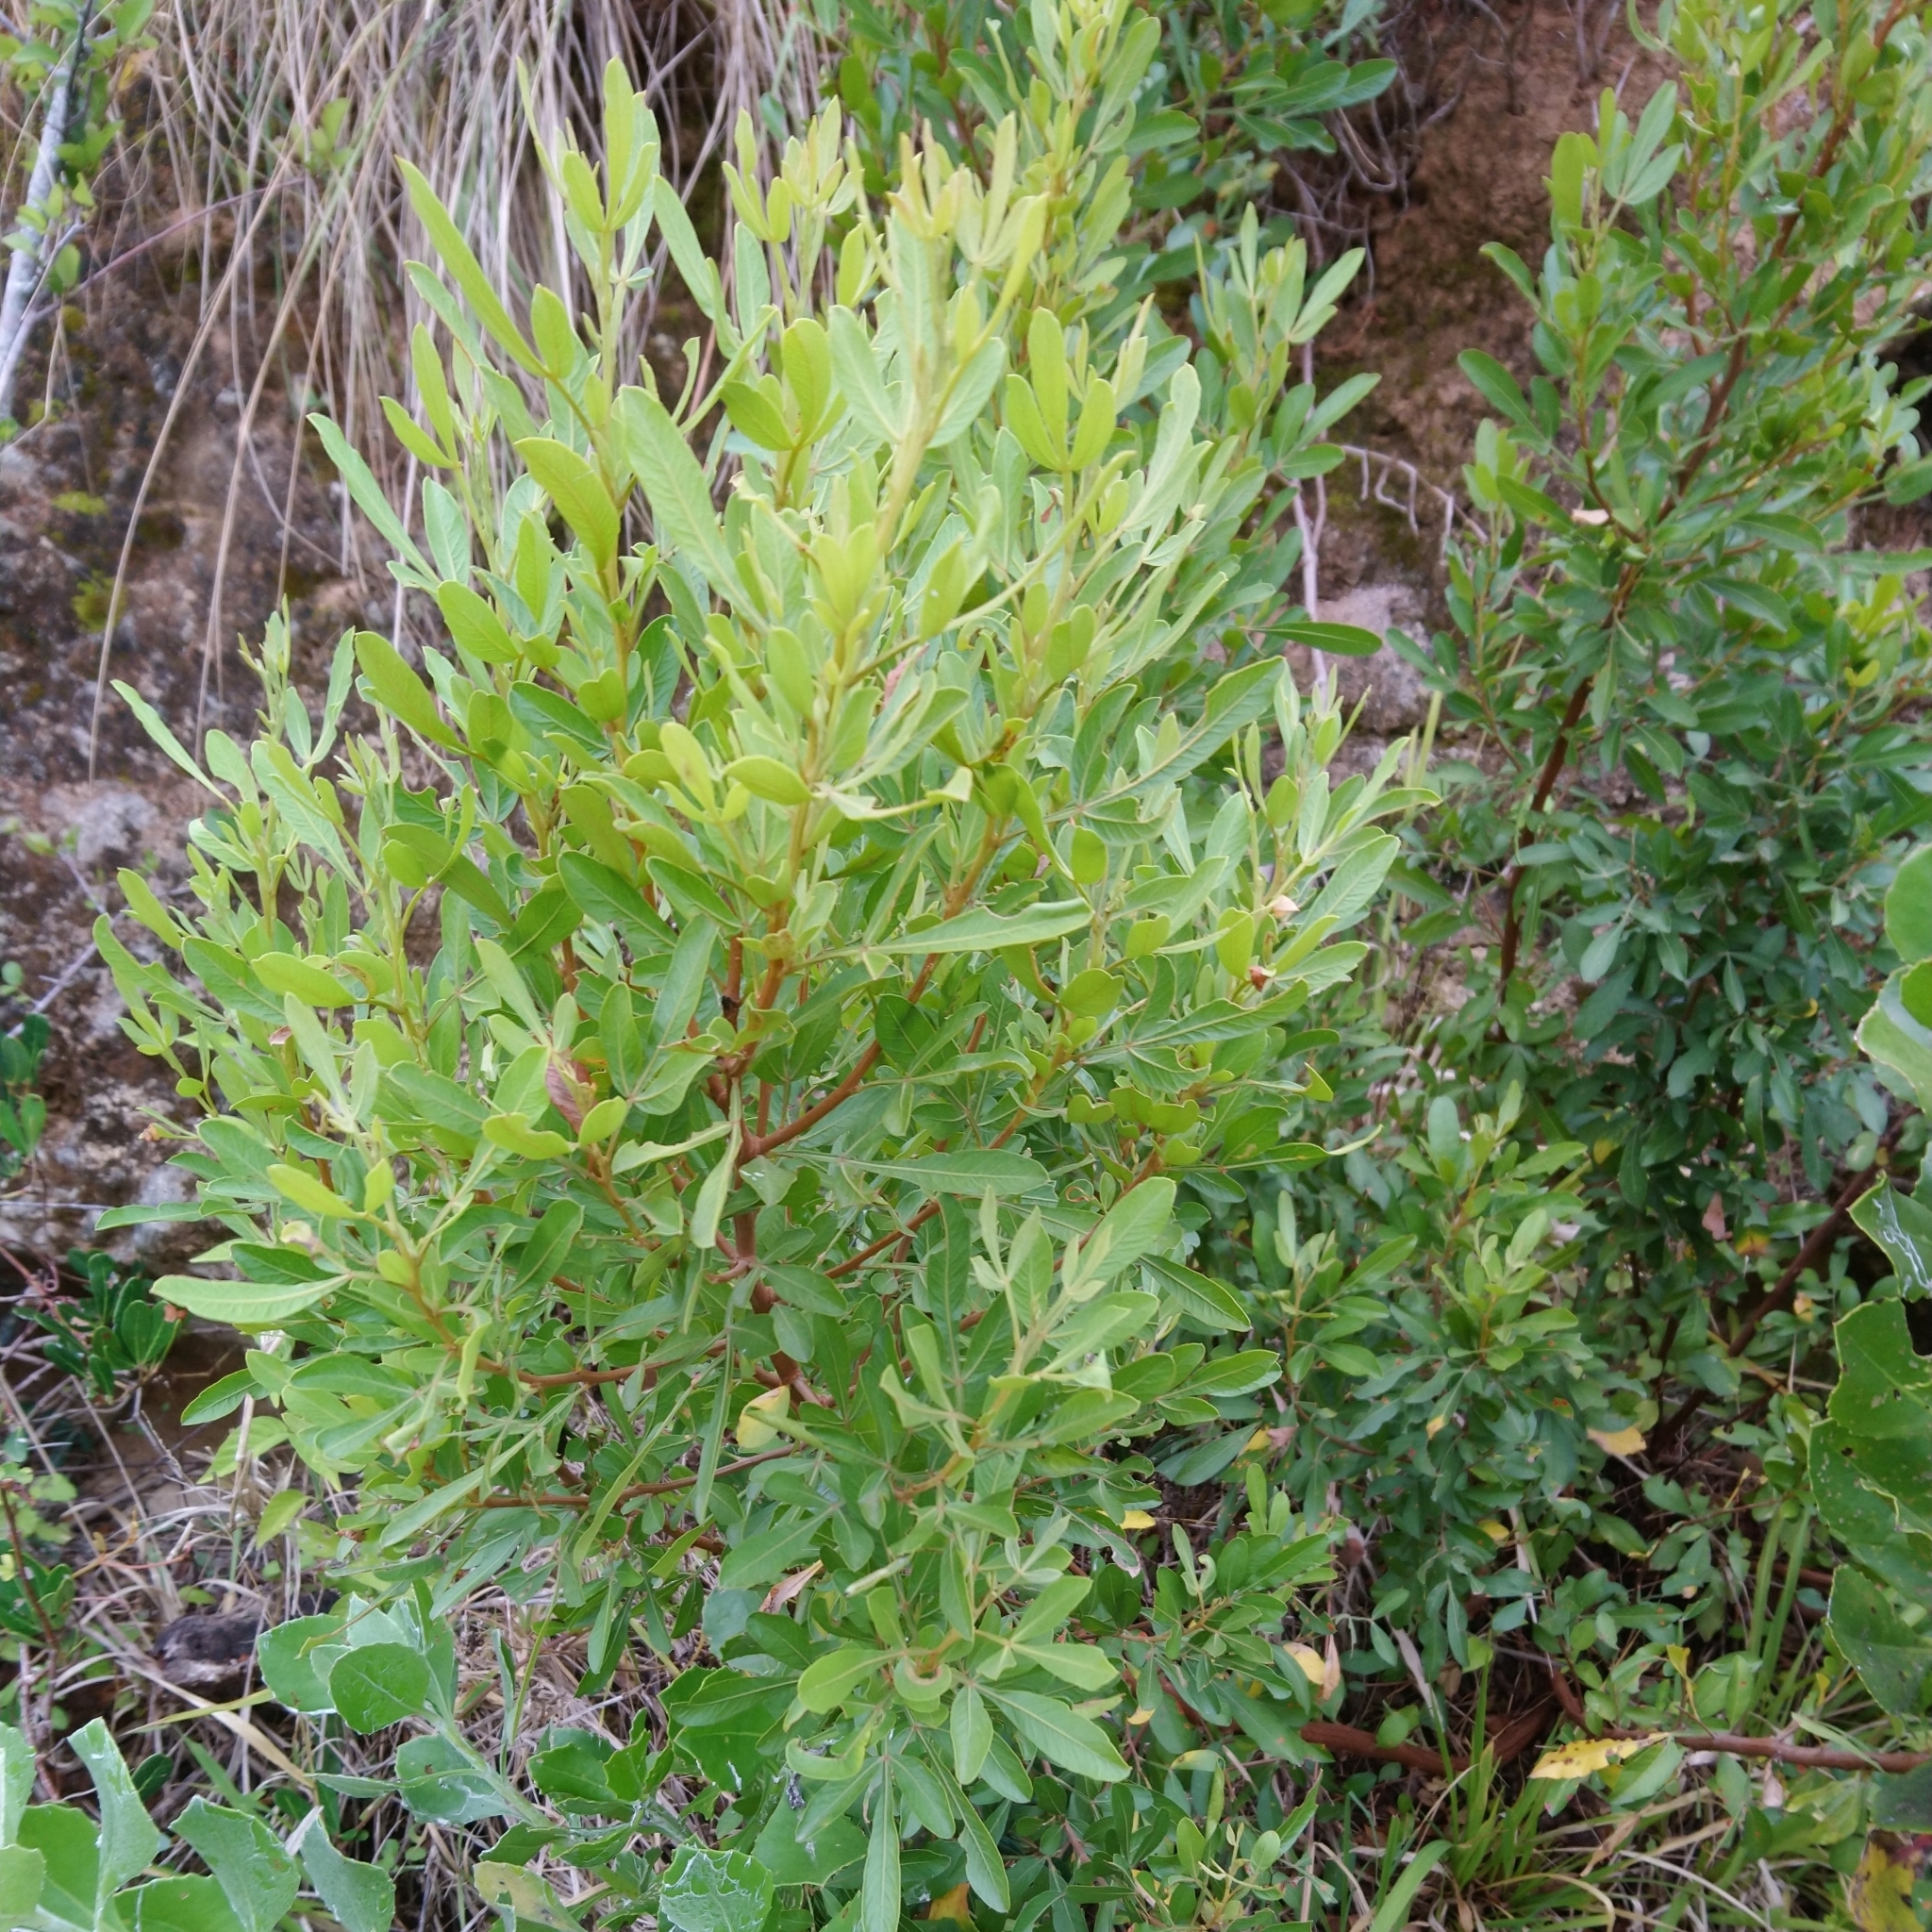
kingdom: Plantae
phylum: Tracheophyta
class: Magnoliopsida
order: Sapindales
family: Anacardiaceae
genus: Searsia
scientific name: Searsia pallens
